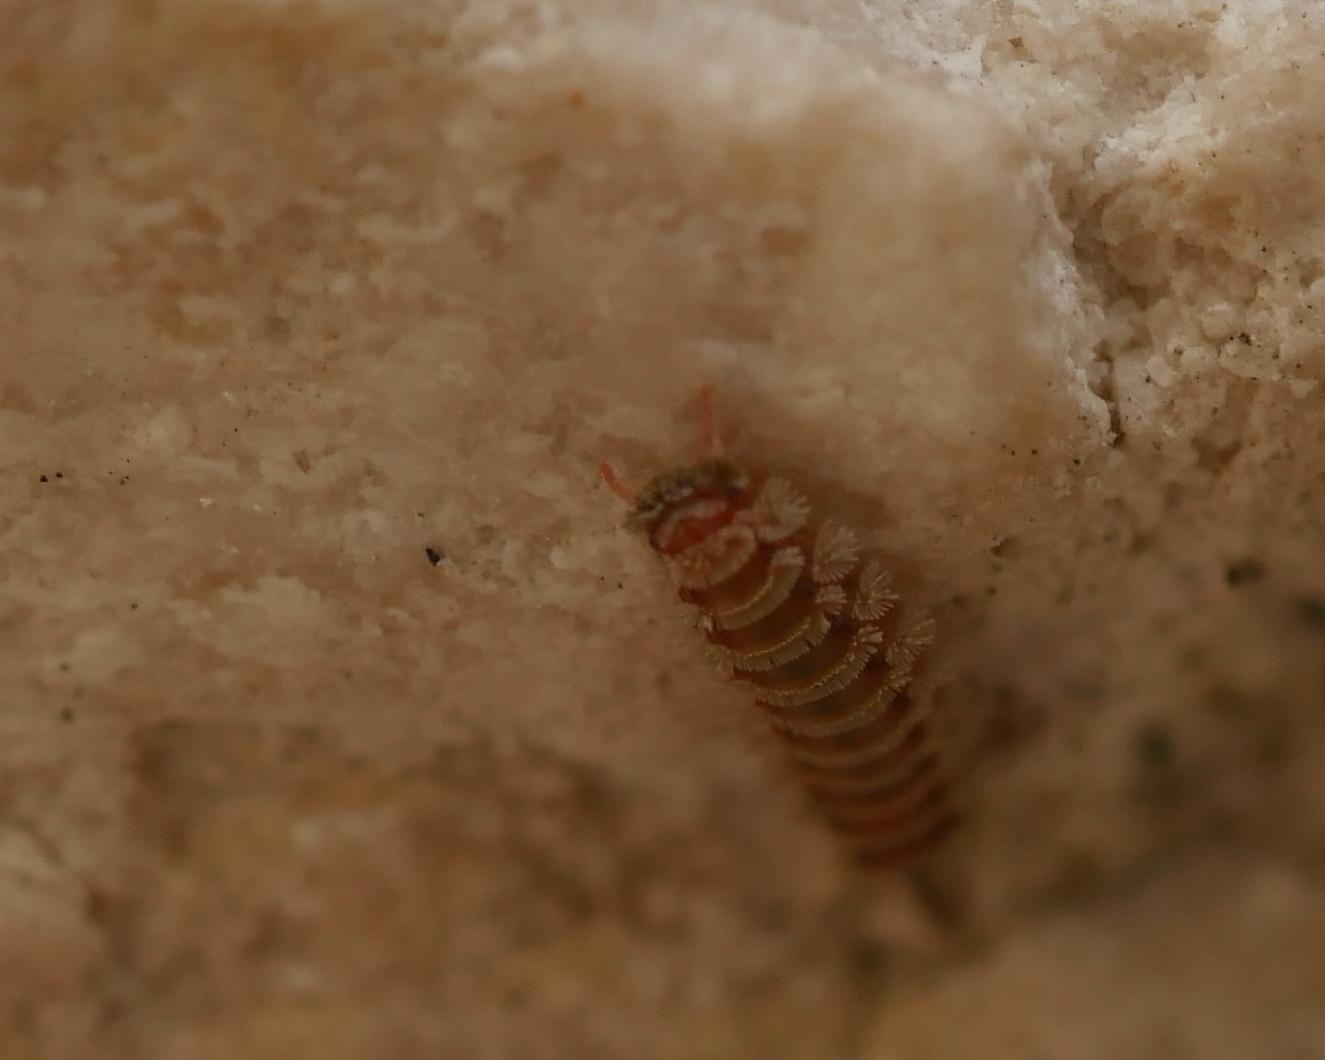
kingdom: Animalia
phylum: Arthropoda
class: Diplopoda
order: Polyxenida
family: Polyxenidae
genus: Polyxenus
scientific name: Polyxenus lagurus
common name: Bristly millipede
